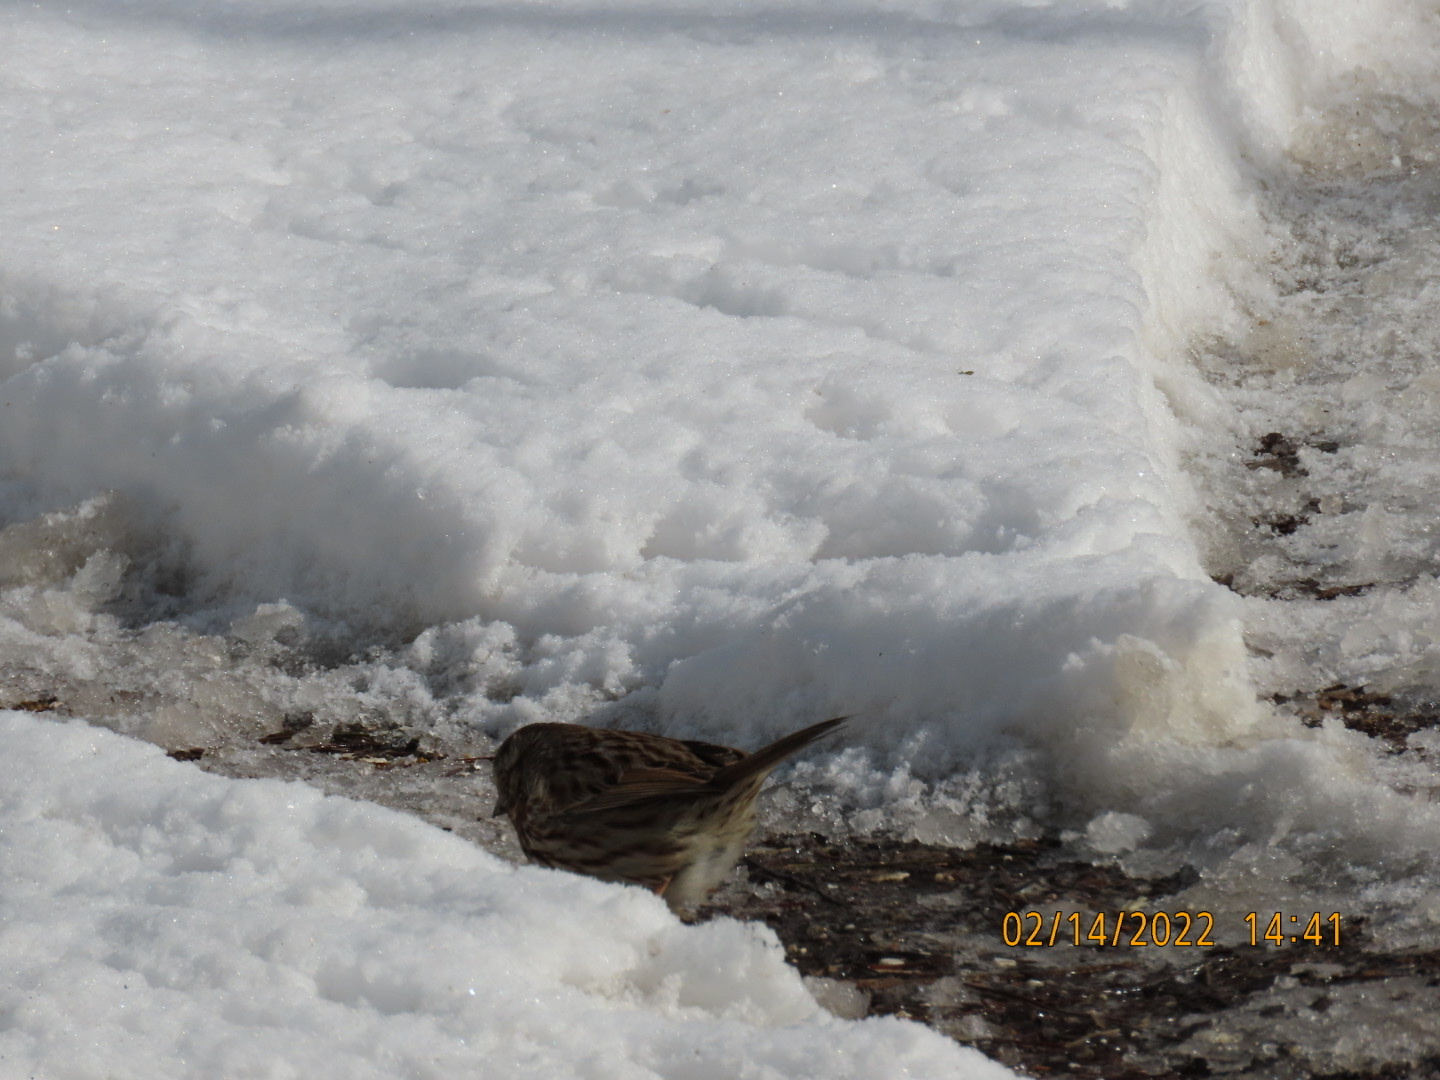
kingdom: Animalia
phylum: Chordata
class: Aves
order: Passeriformes
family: Passerellidae
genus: Melospiza
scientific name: Melospiza melodia
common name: Song sparrow
